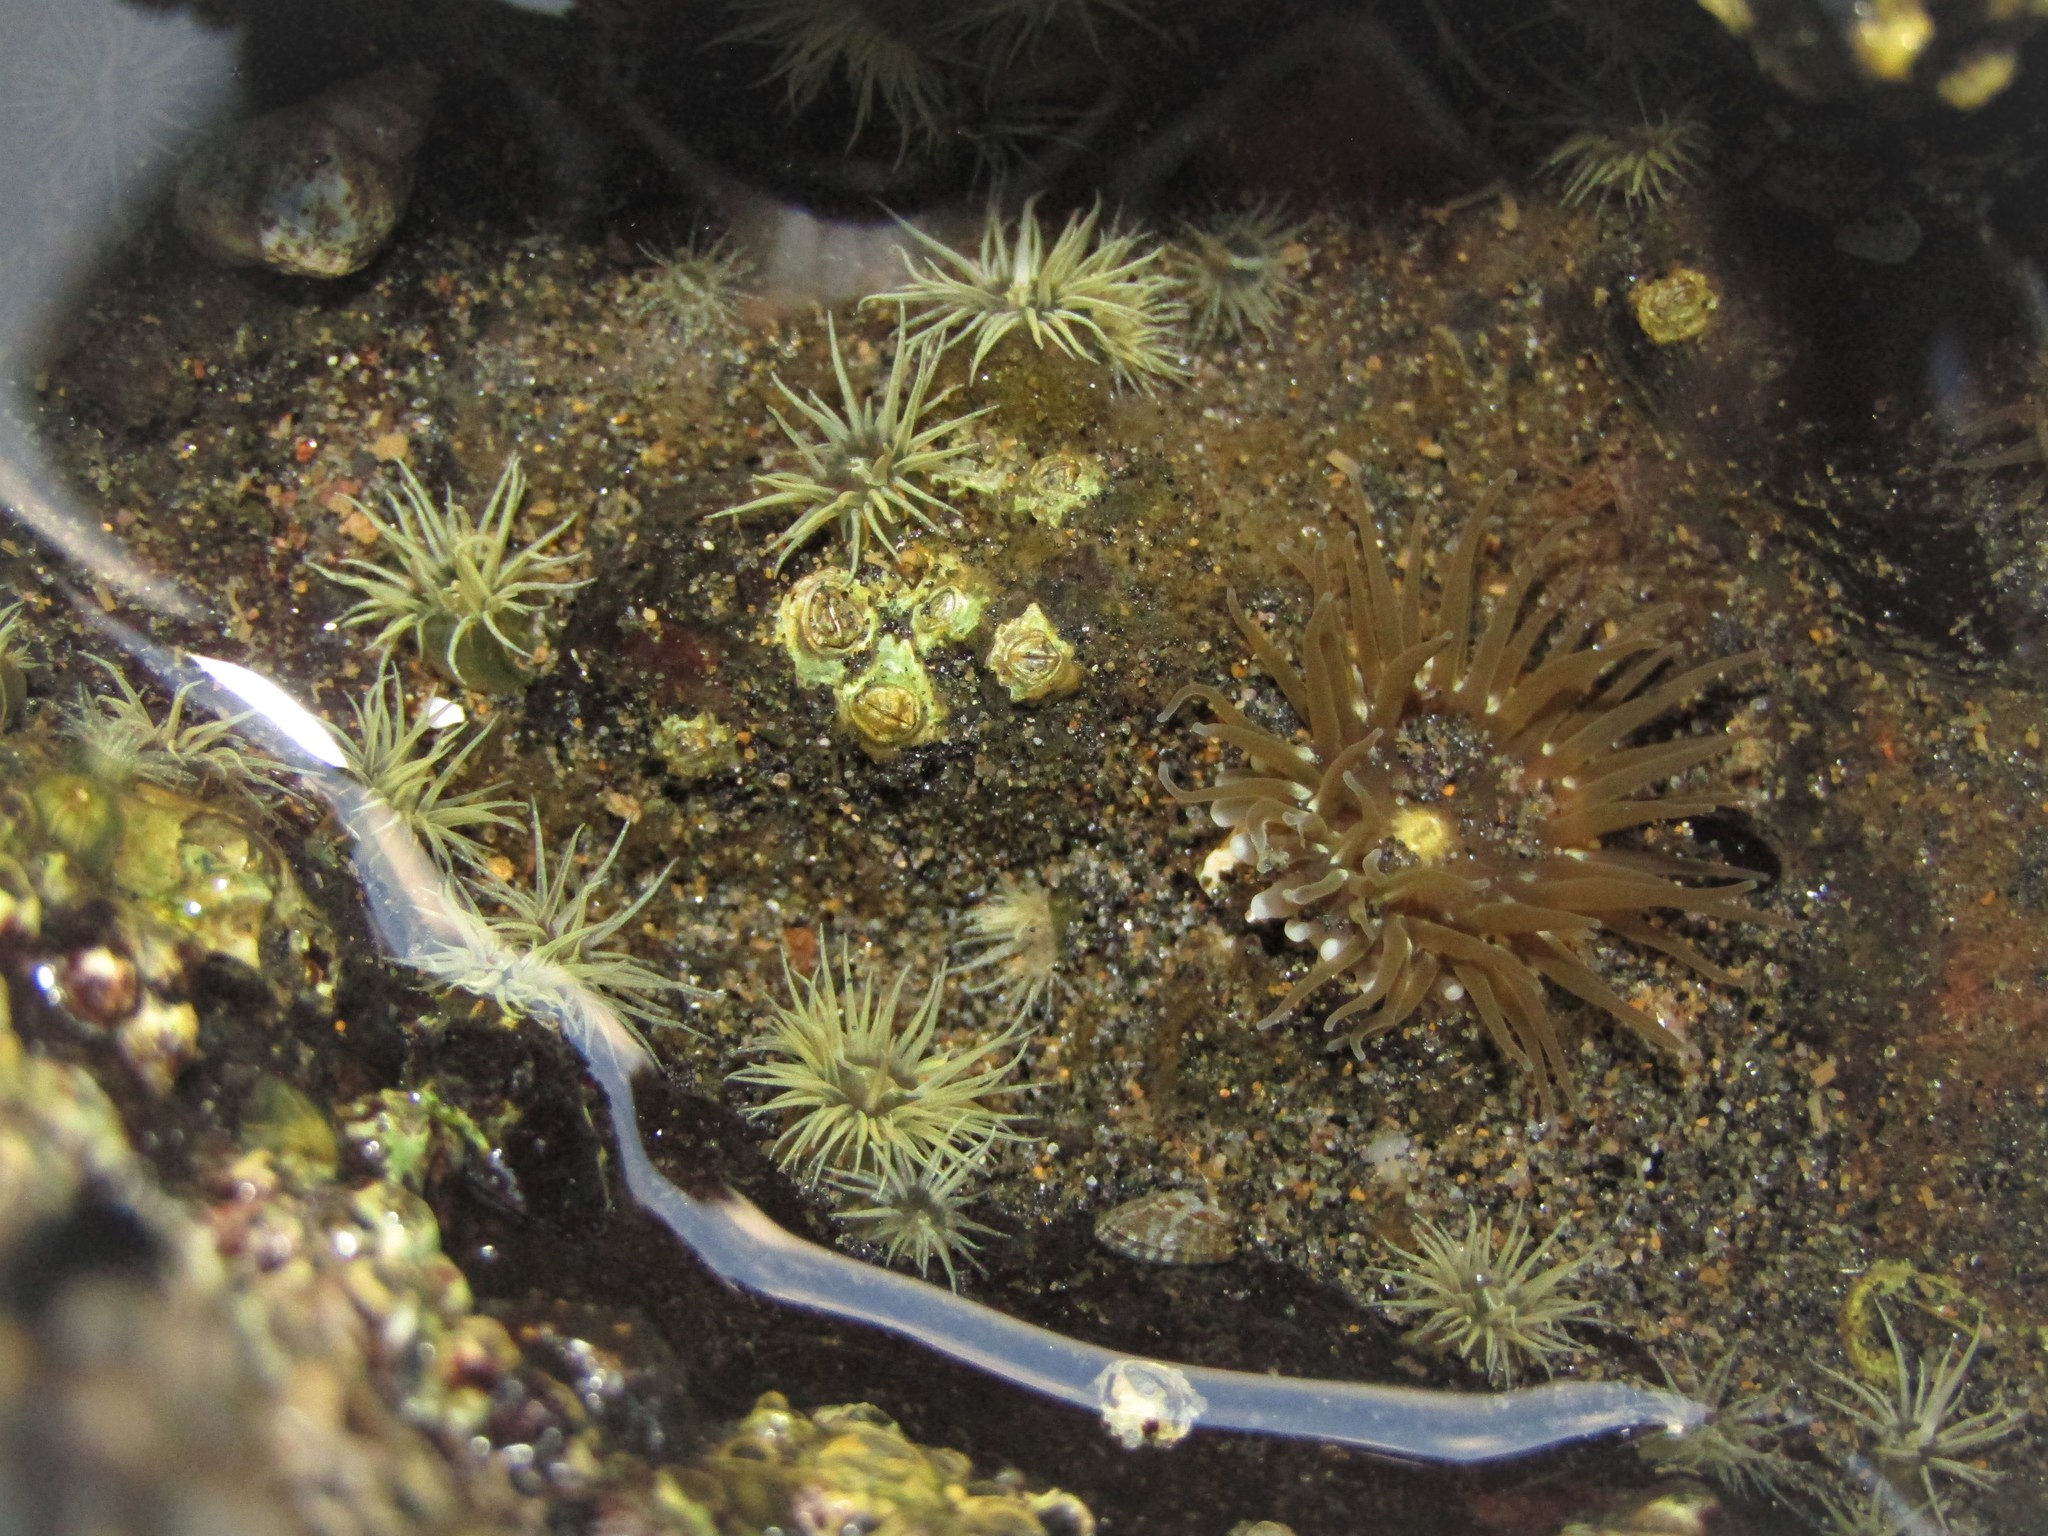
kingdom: Animalia
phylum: Cnidaria
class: Anthozoa
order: Actiniaria
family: Diadumenidae
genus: Diadumene
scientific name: Diadumene lineata
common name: Orange-striped anemone
